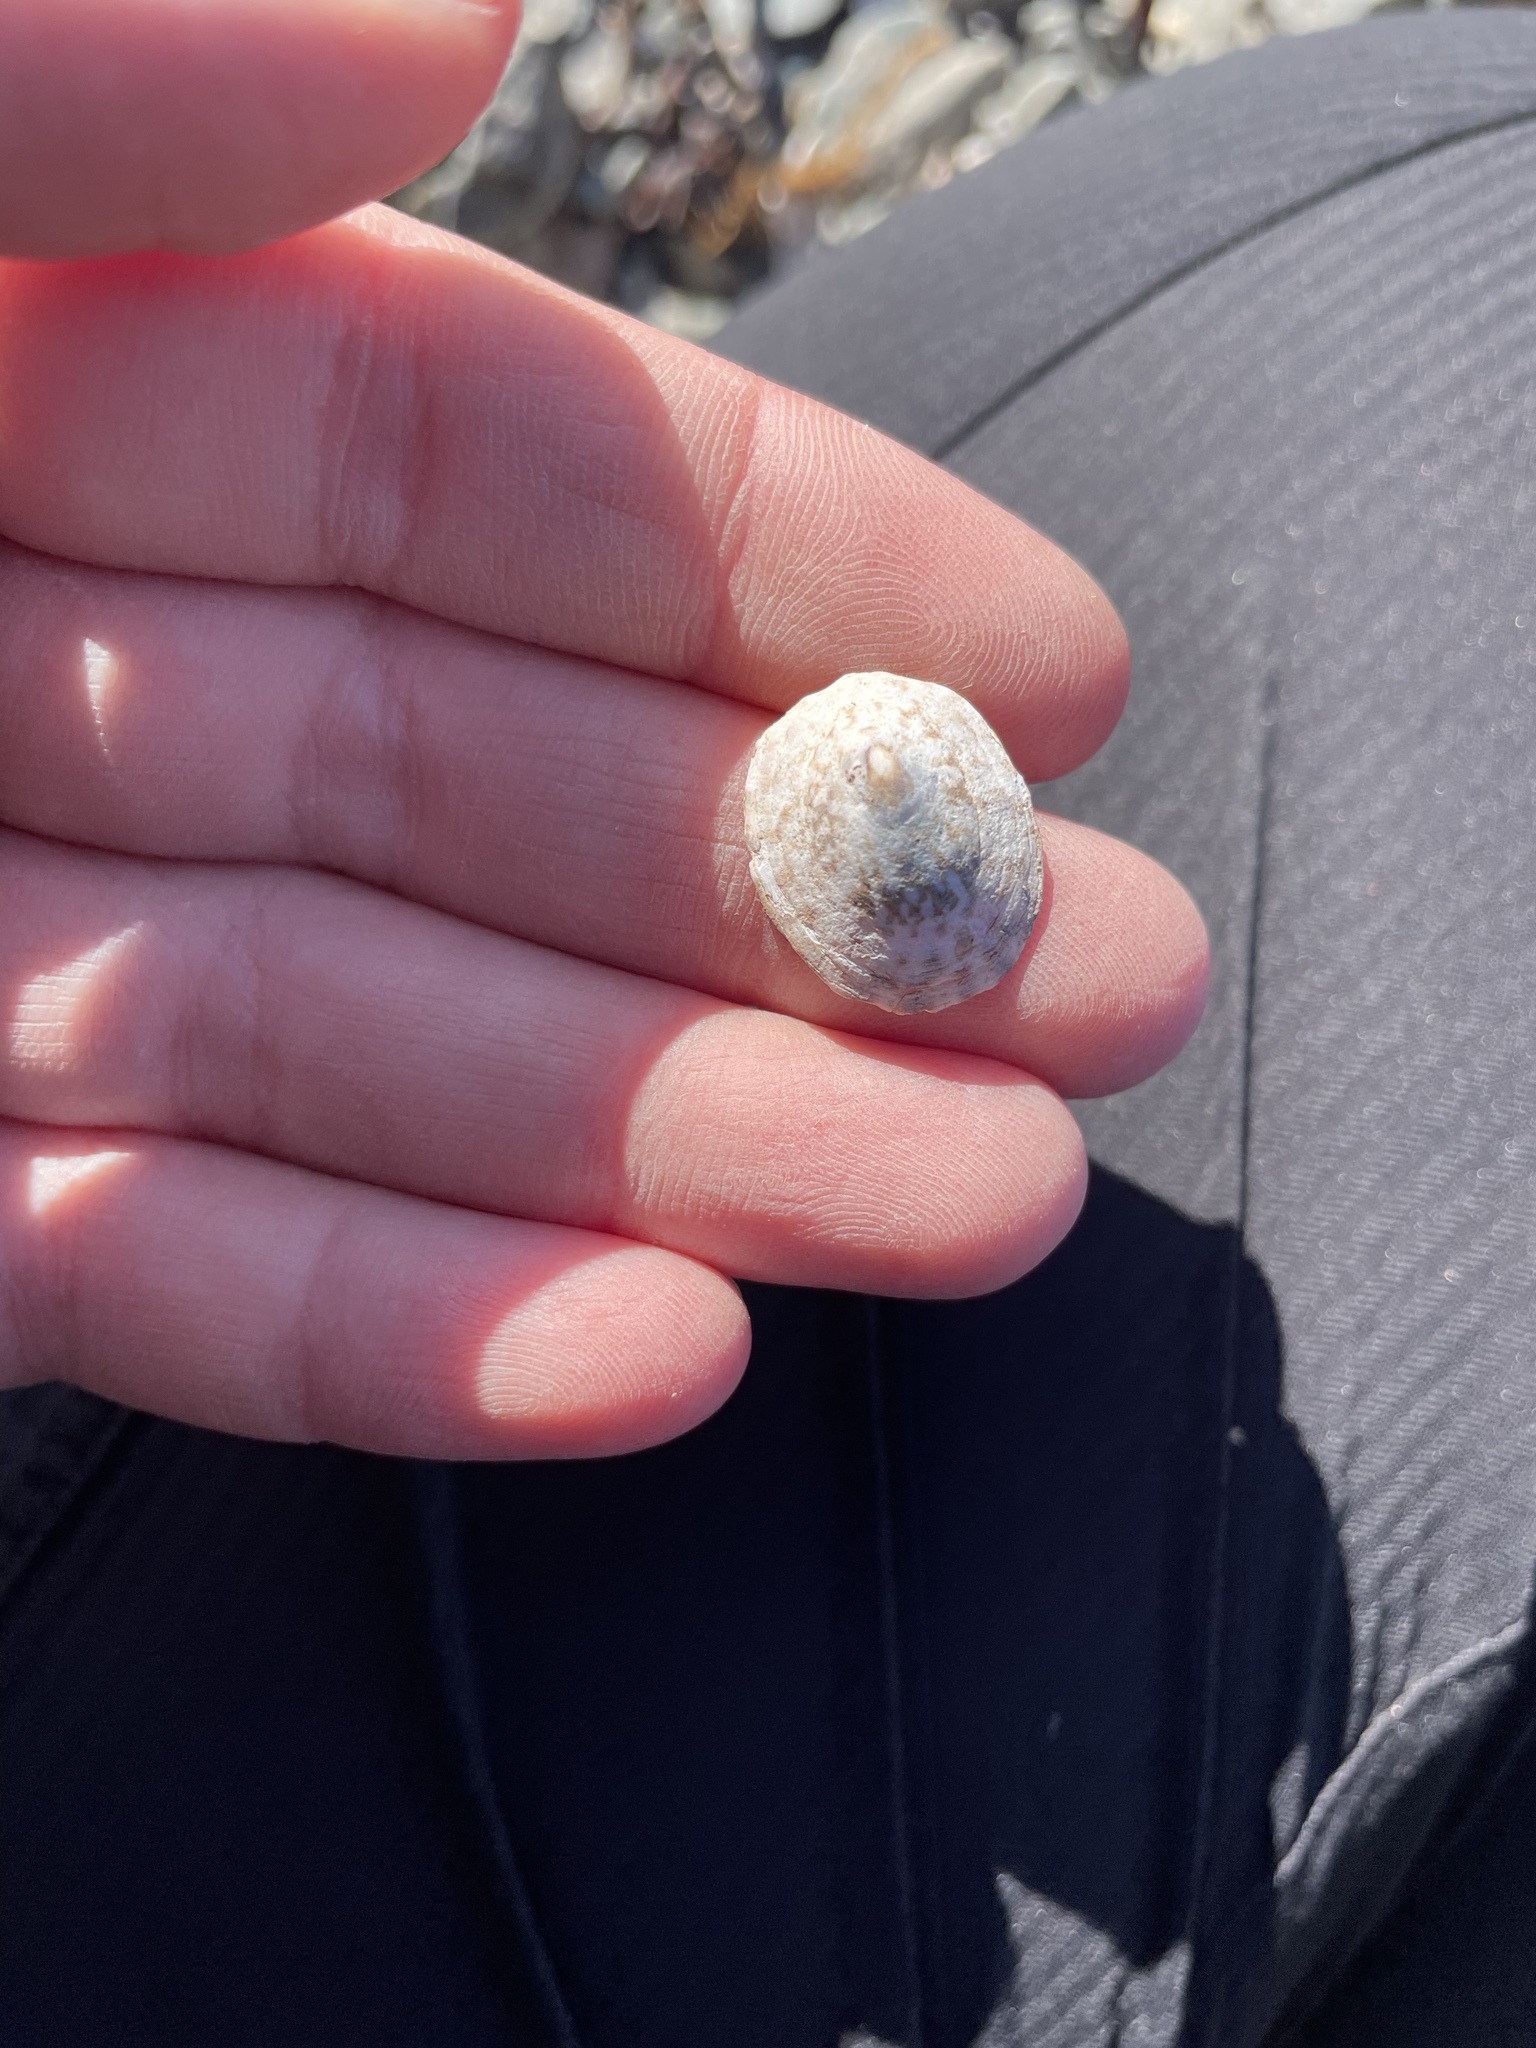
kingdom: Animalia
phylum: Mollusca
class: Gastropoda
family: Lottiidae
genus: Testudinalia
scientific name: Testudinalia testudinalis
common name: Common tortoiseshell limpet
